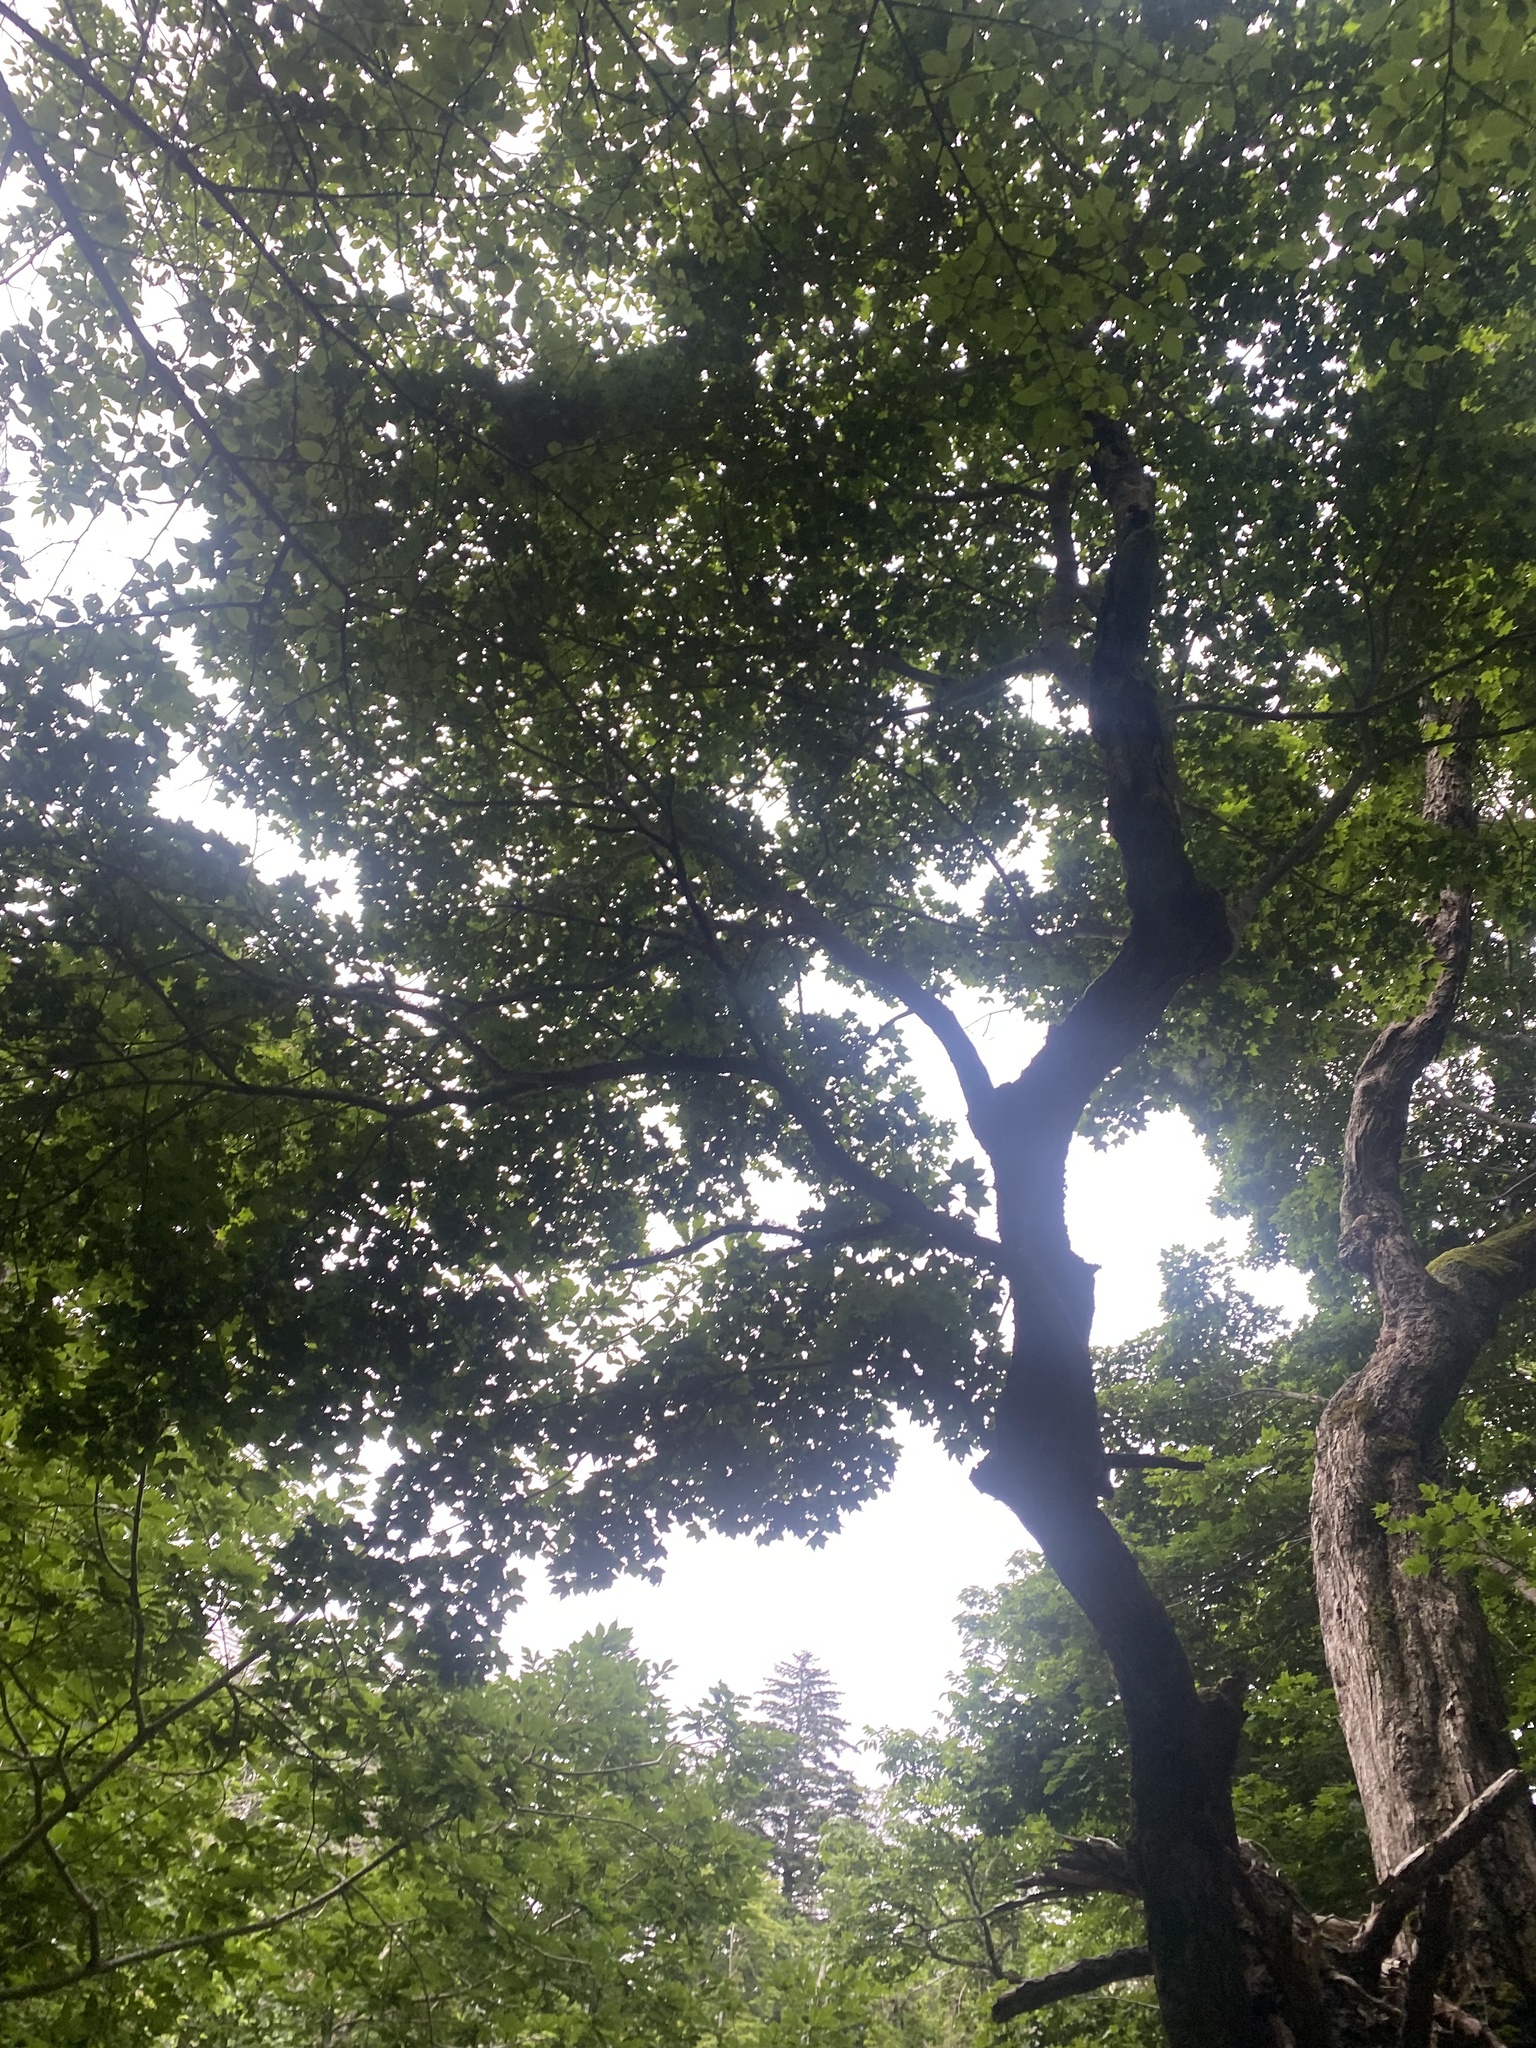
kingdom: Plantae
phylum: Tracheophyta
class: Magnoliopsida
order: Sapindales
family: Sapindaceae
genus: Acer
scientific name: Acer pictum
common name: The painted maple
